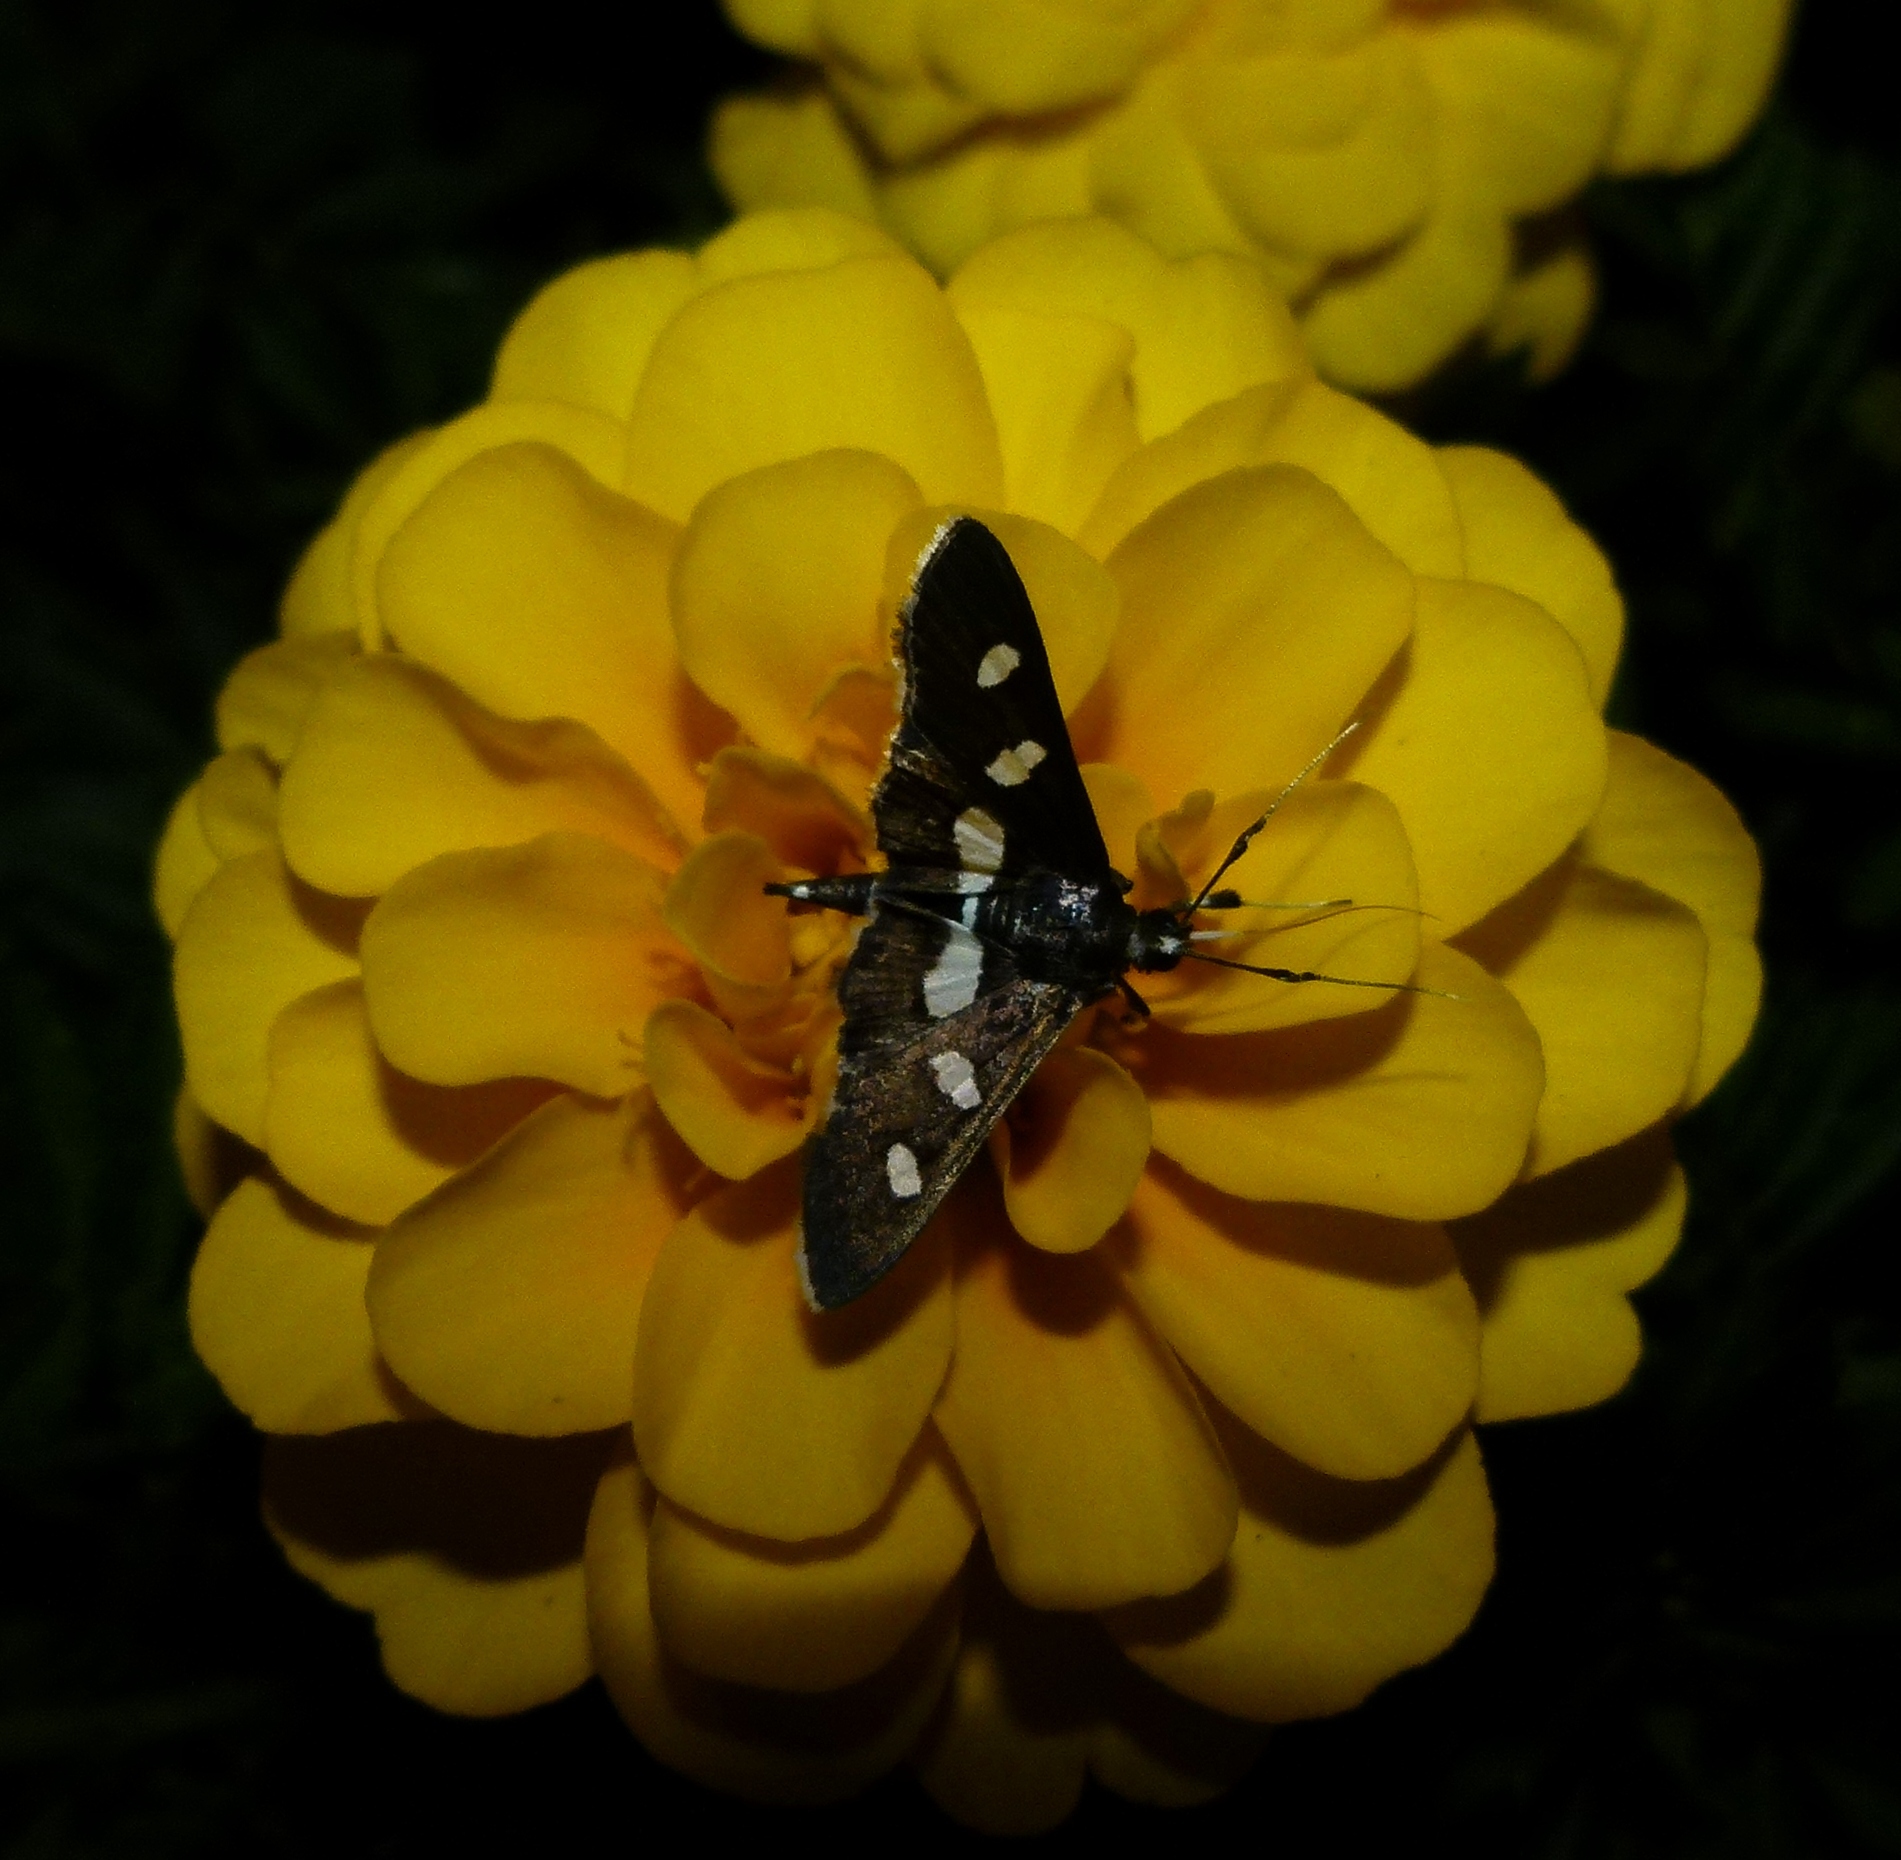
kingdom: Animalia
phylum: Arthropoda
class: Insecta
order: Lepidoptera
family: Crambidae
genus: Desmia
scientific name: Desmia
